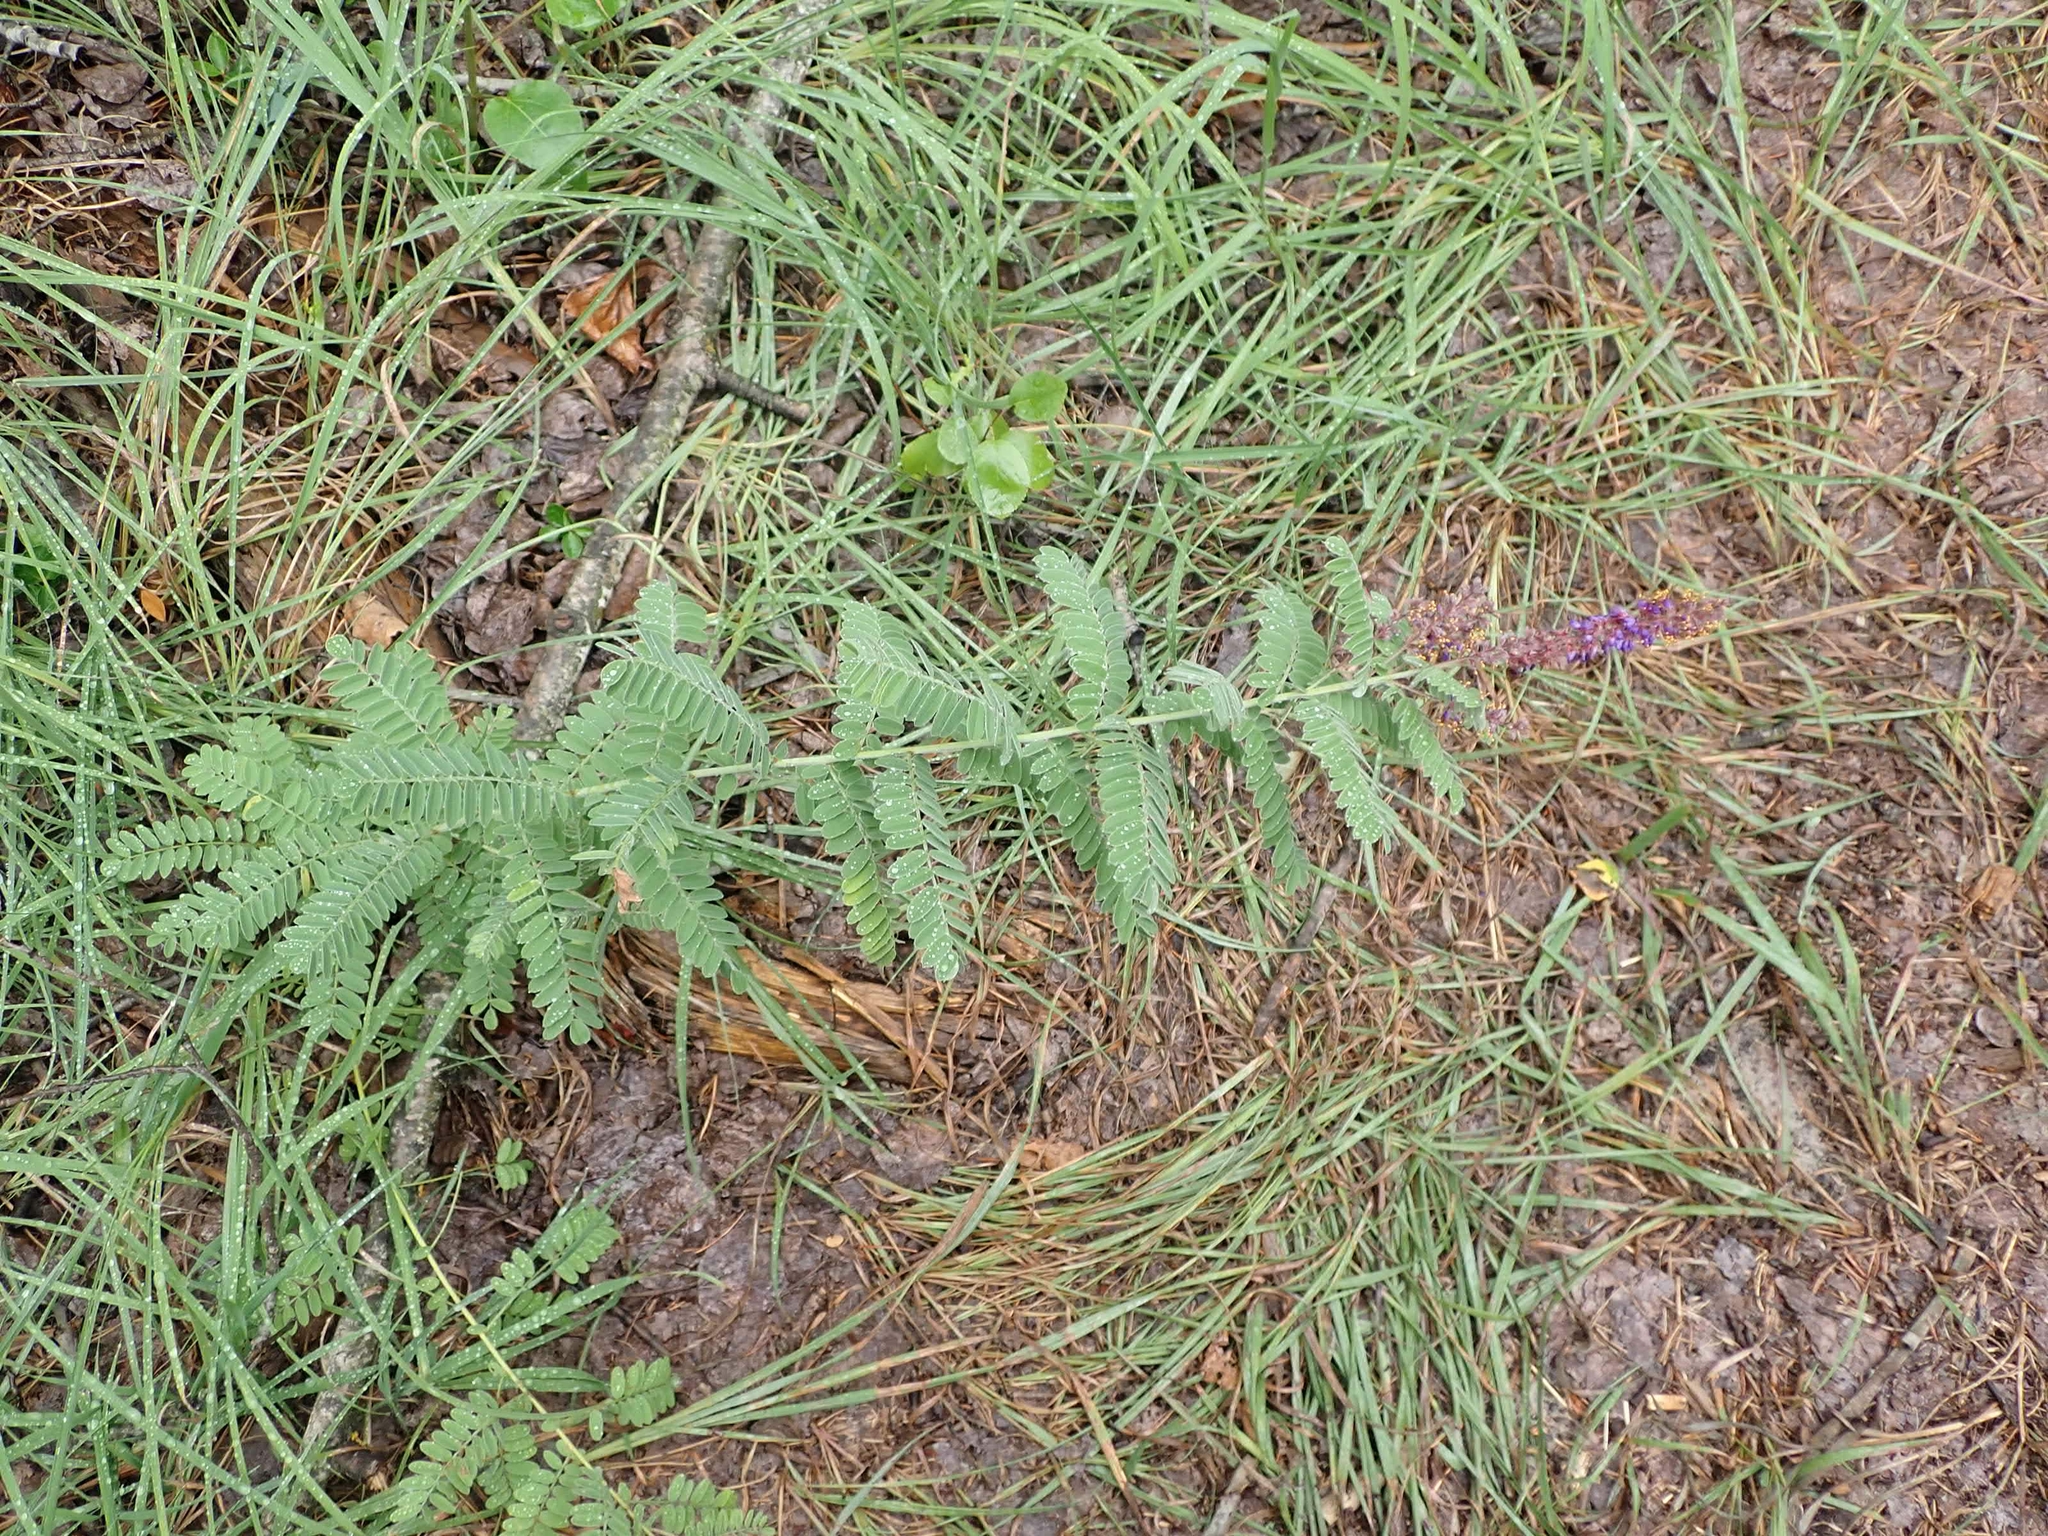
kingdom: Plantae
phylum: Tracheophyta
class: Magnoliopsida
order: Fabales
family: Fabaceae
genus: Amorpha
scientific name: Amorpha canescens
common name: Leadplant
